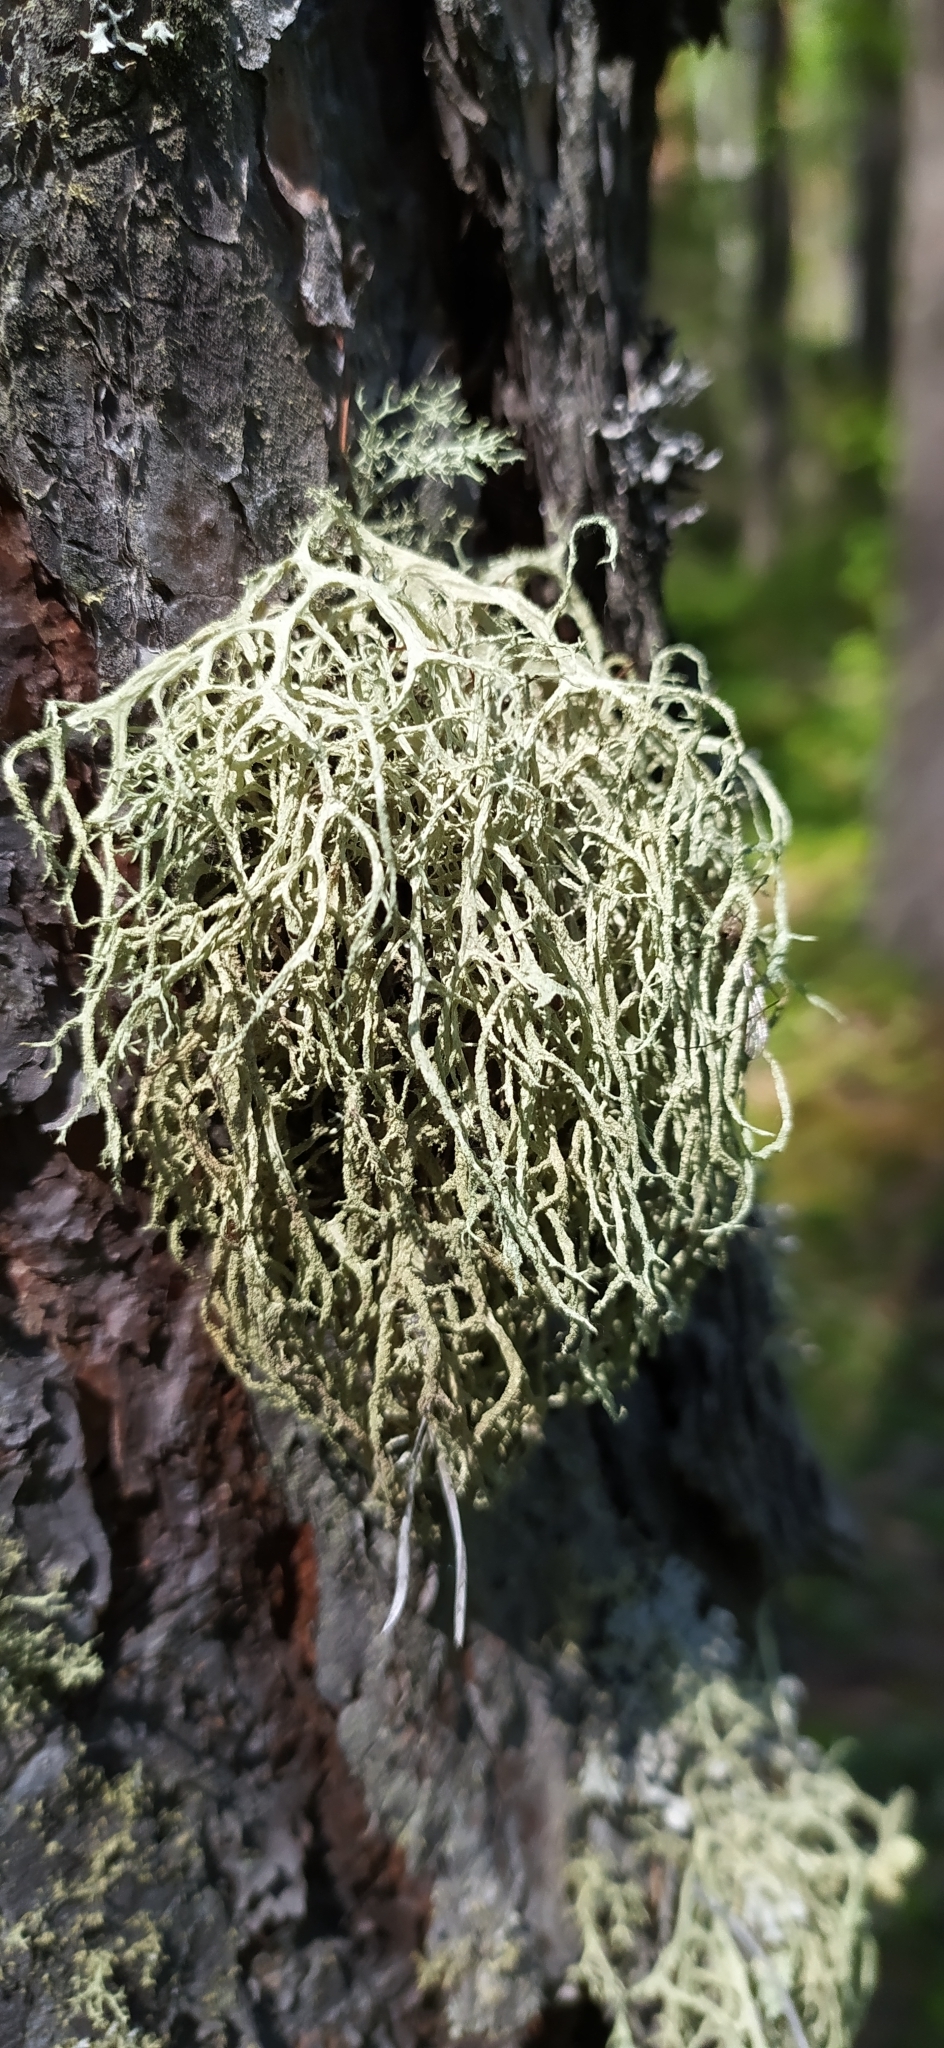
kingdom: Fungi
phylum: Ascomycota
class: Lecanoromycetes
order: Lecanorales
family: Parmeliaceae
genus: Evernia
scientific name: Evernia mesomorpha
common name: Boreal oak moss lichen
